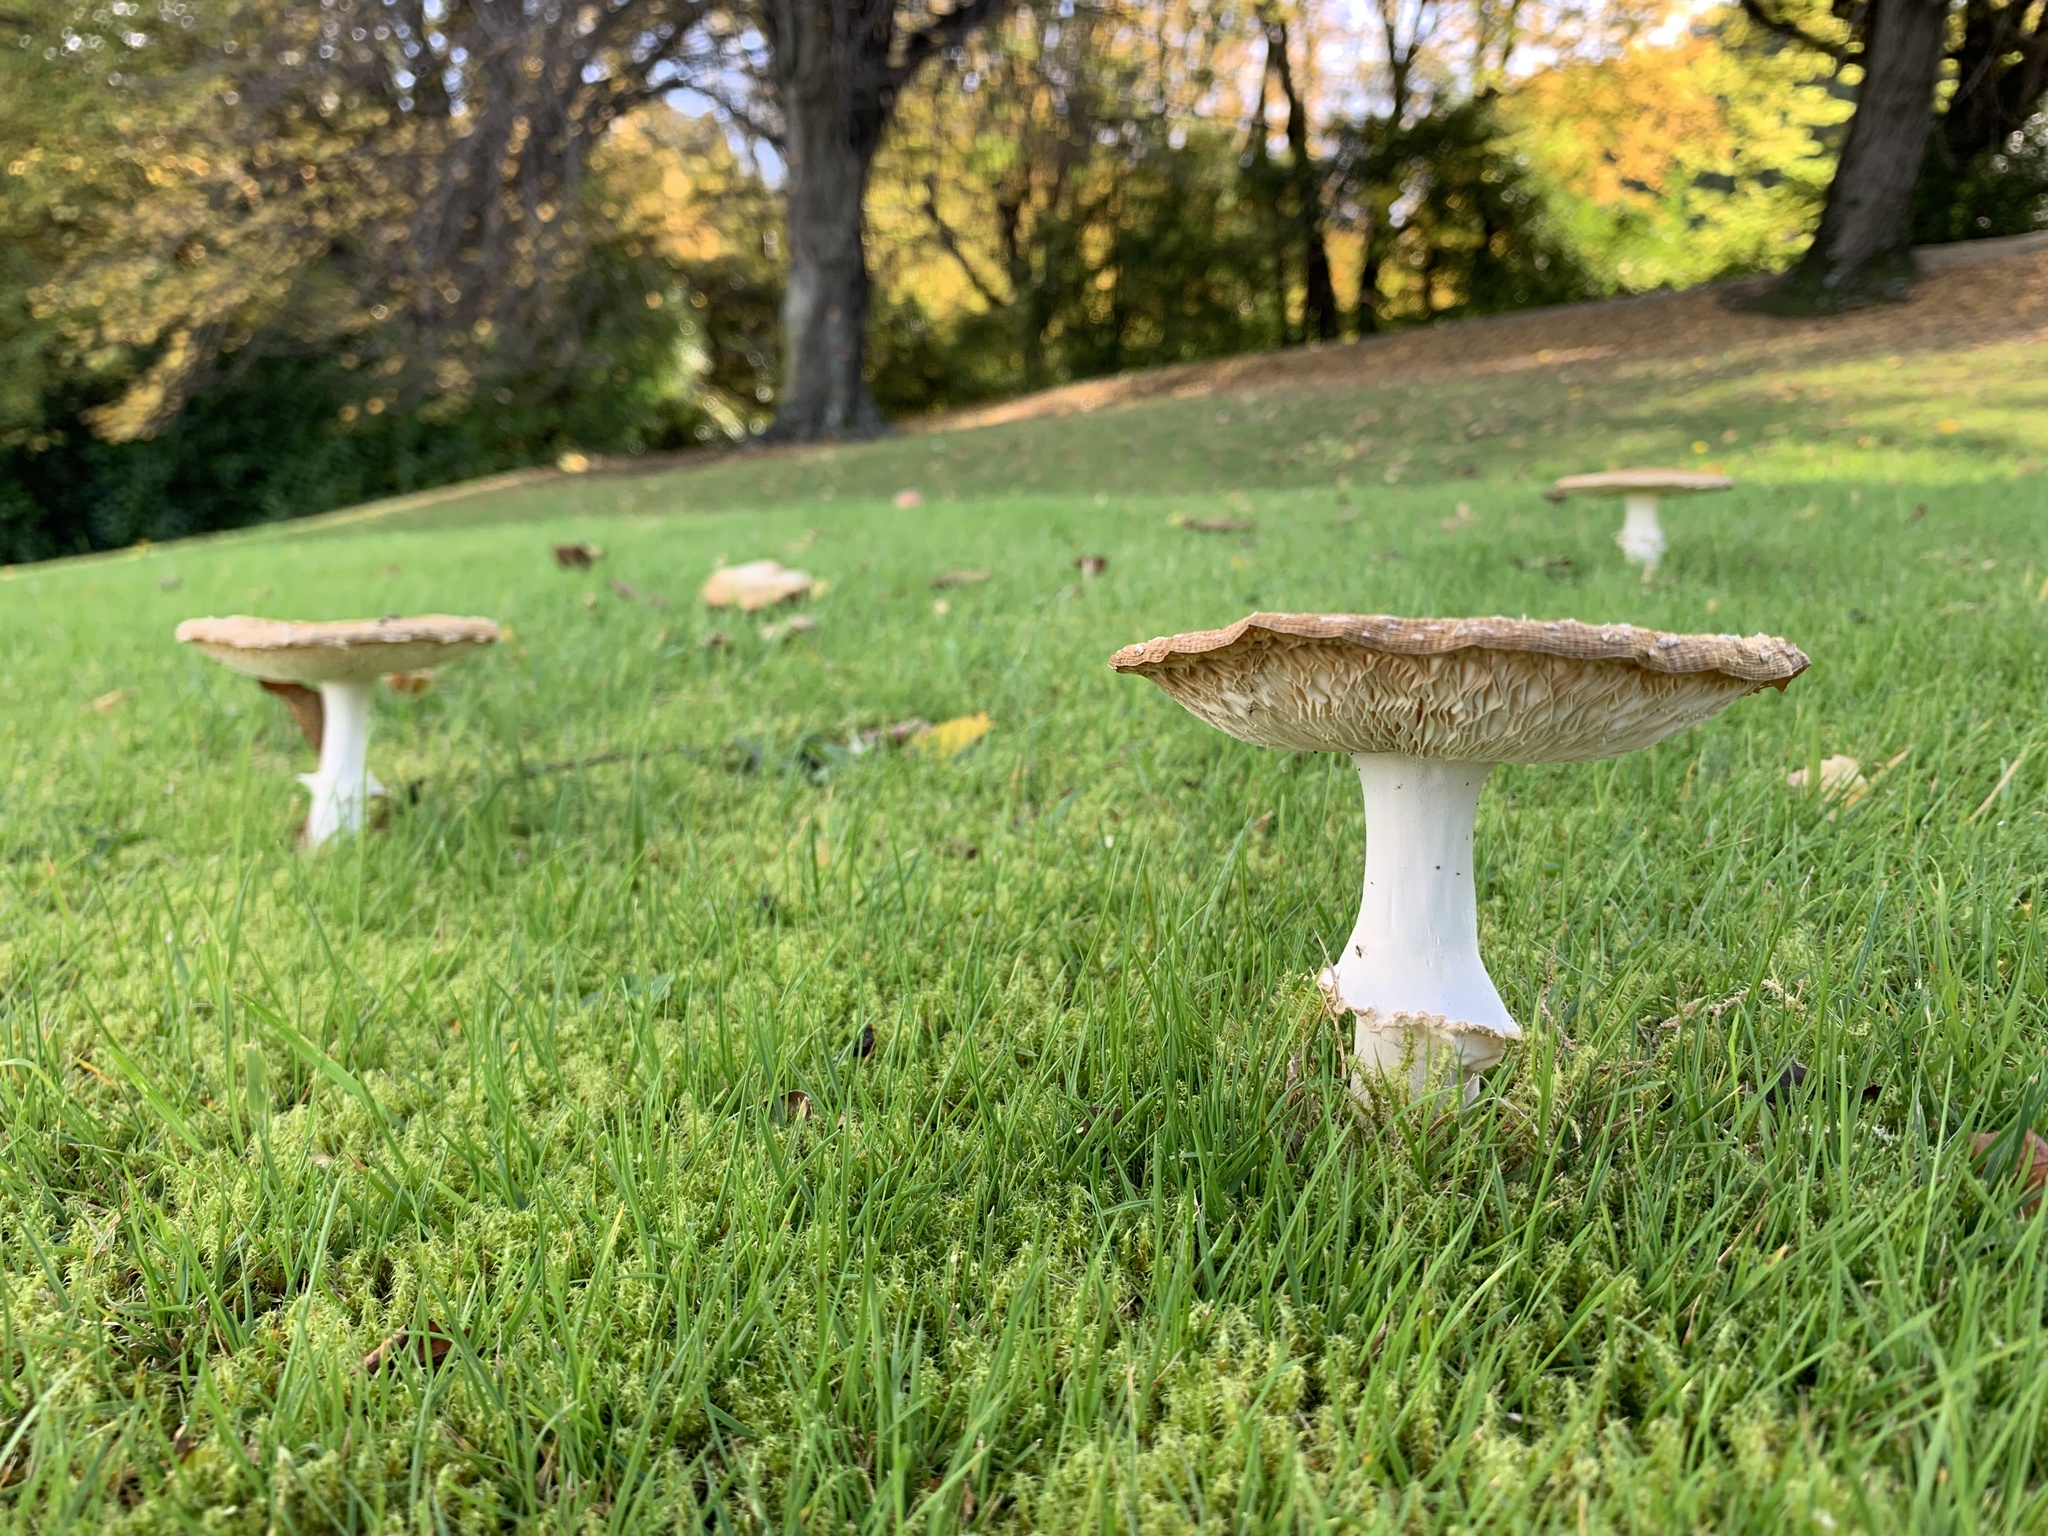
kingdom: Fungi
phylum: Basidiomycota
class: Agaricomycetes
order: Agaricales
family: Amanitaceae
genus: Amanita
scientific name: Amanita muscaria
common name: Fly agaric
